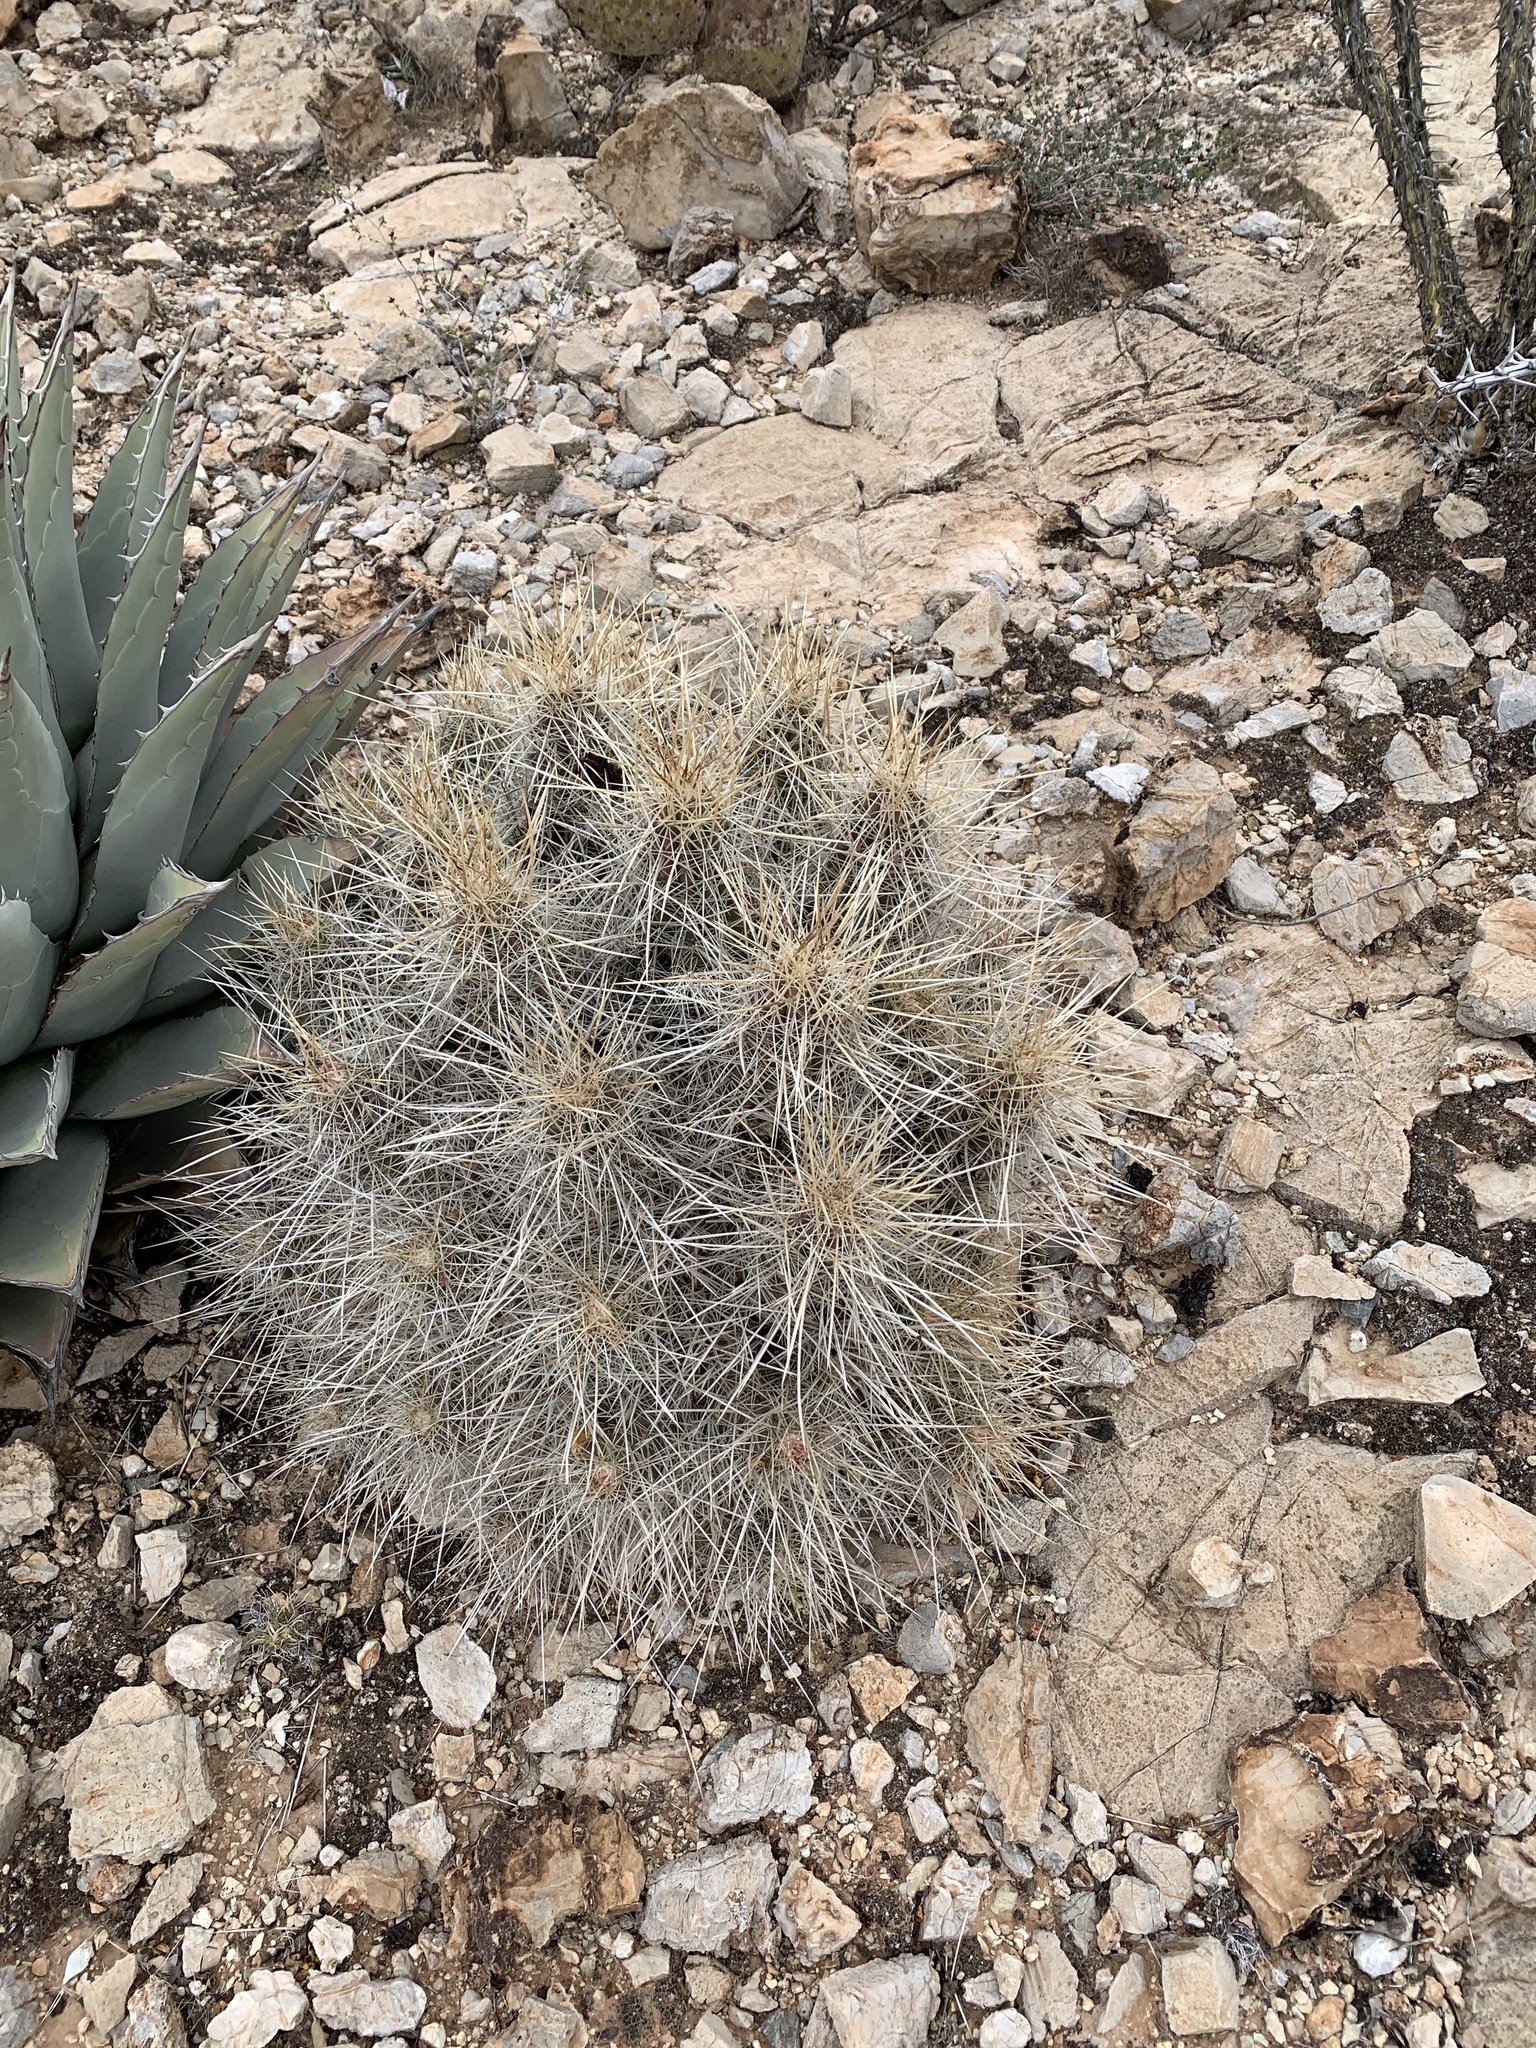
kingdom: Plantae
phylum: Tracheophyta
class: Magnoliopsida
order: Caryophyllales
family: Cactaceae
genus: Echinocereus
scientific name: Echinocereus stramineus
